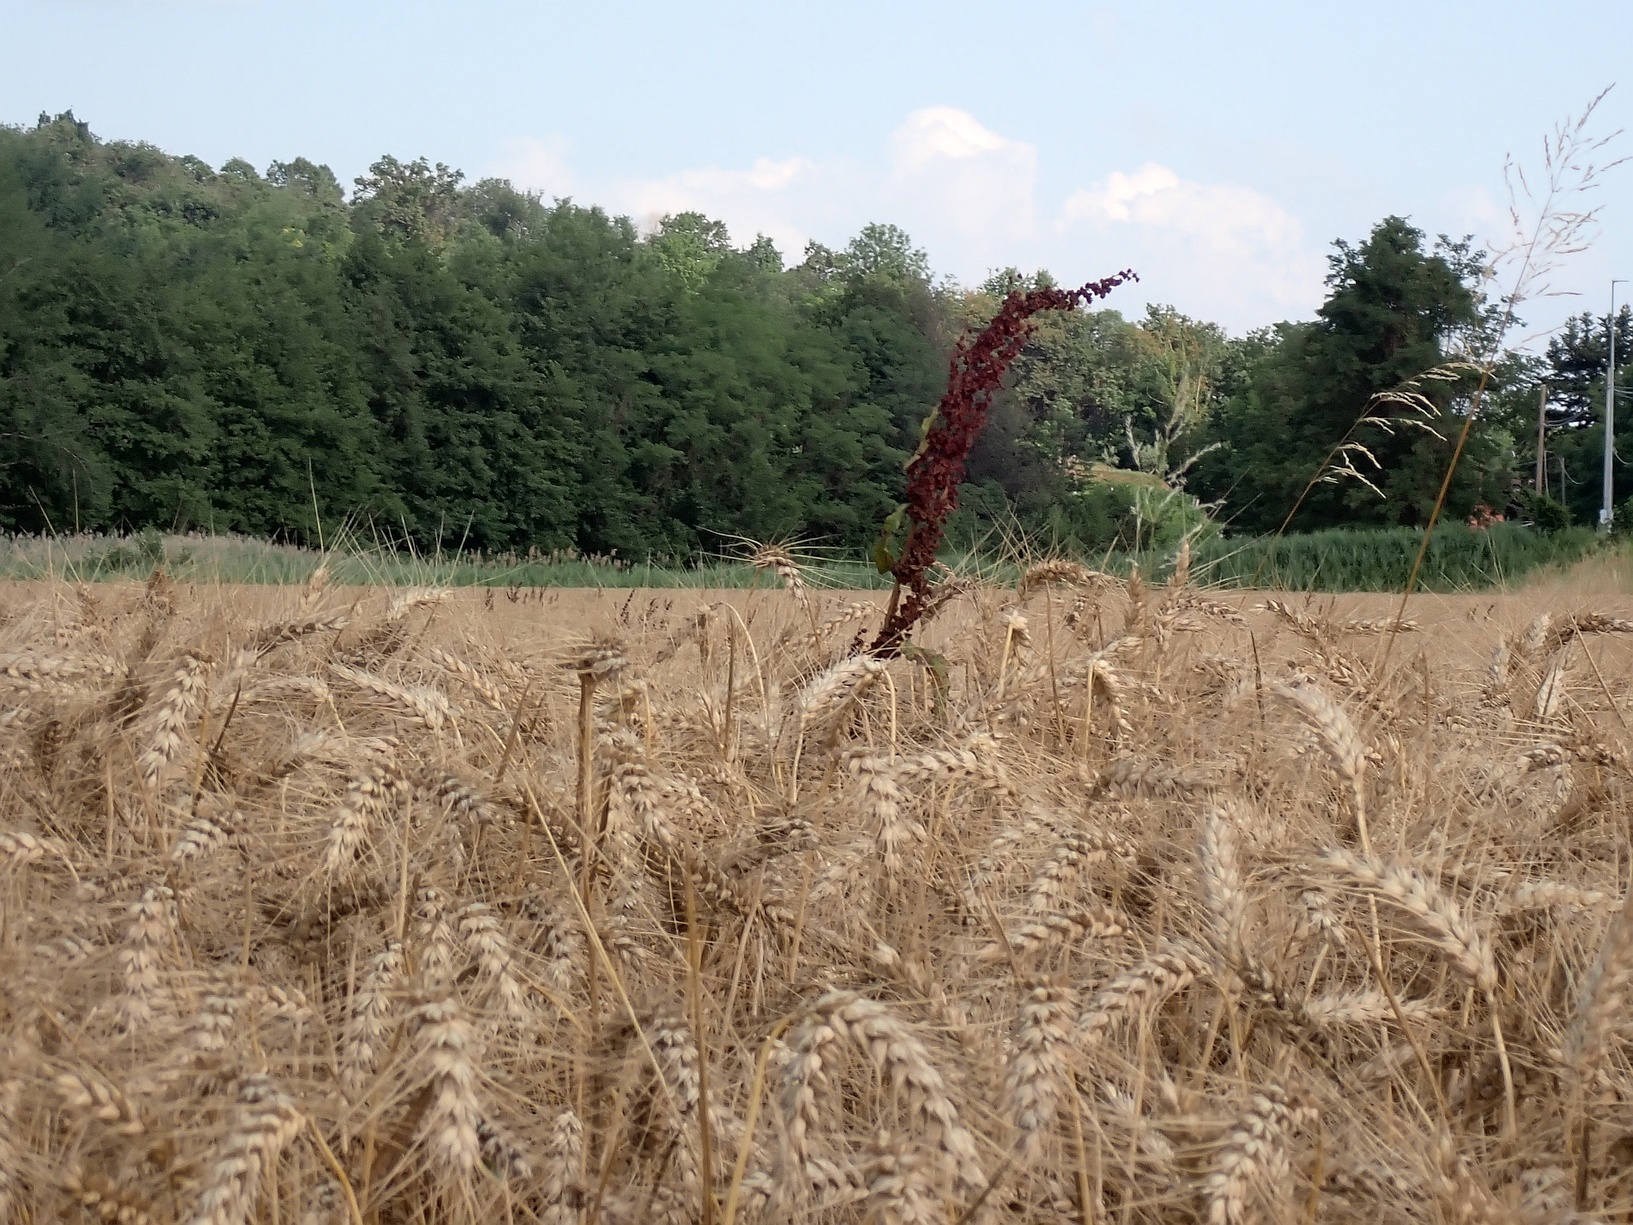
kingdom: Plantae
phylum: Tracheophyta
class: Magnoliopsida
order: Caryophyllales
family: Polygonaceae
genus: Rumex
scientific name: Rumex crispus
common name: Curled dock
